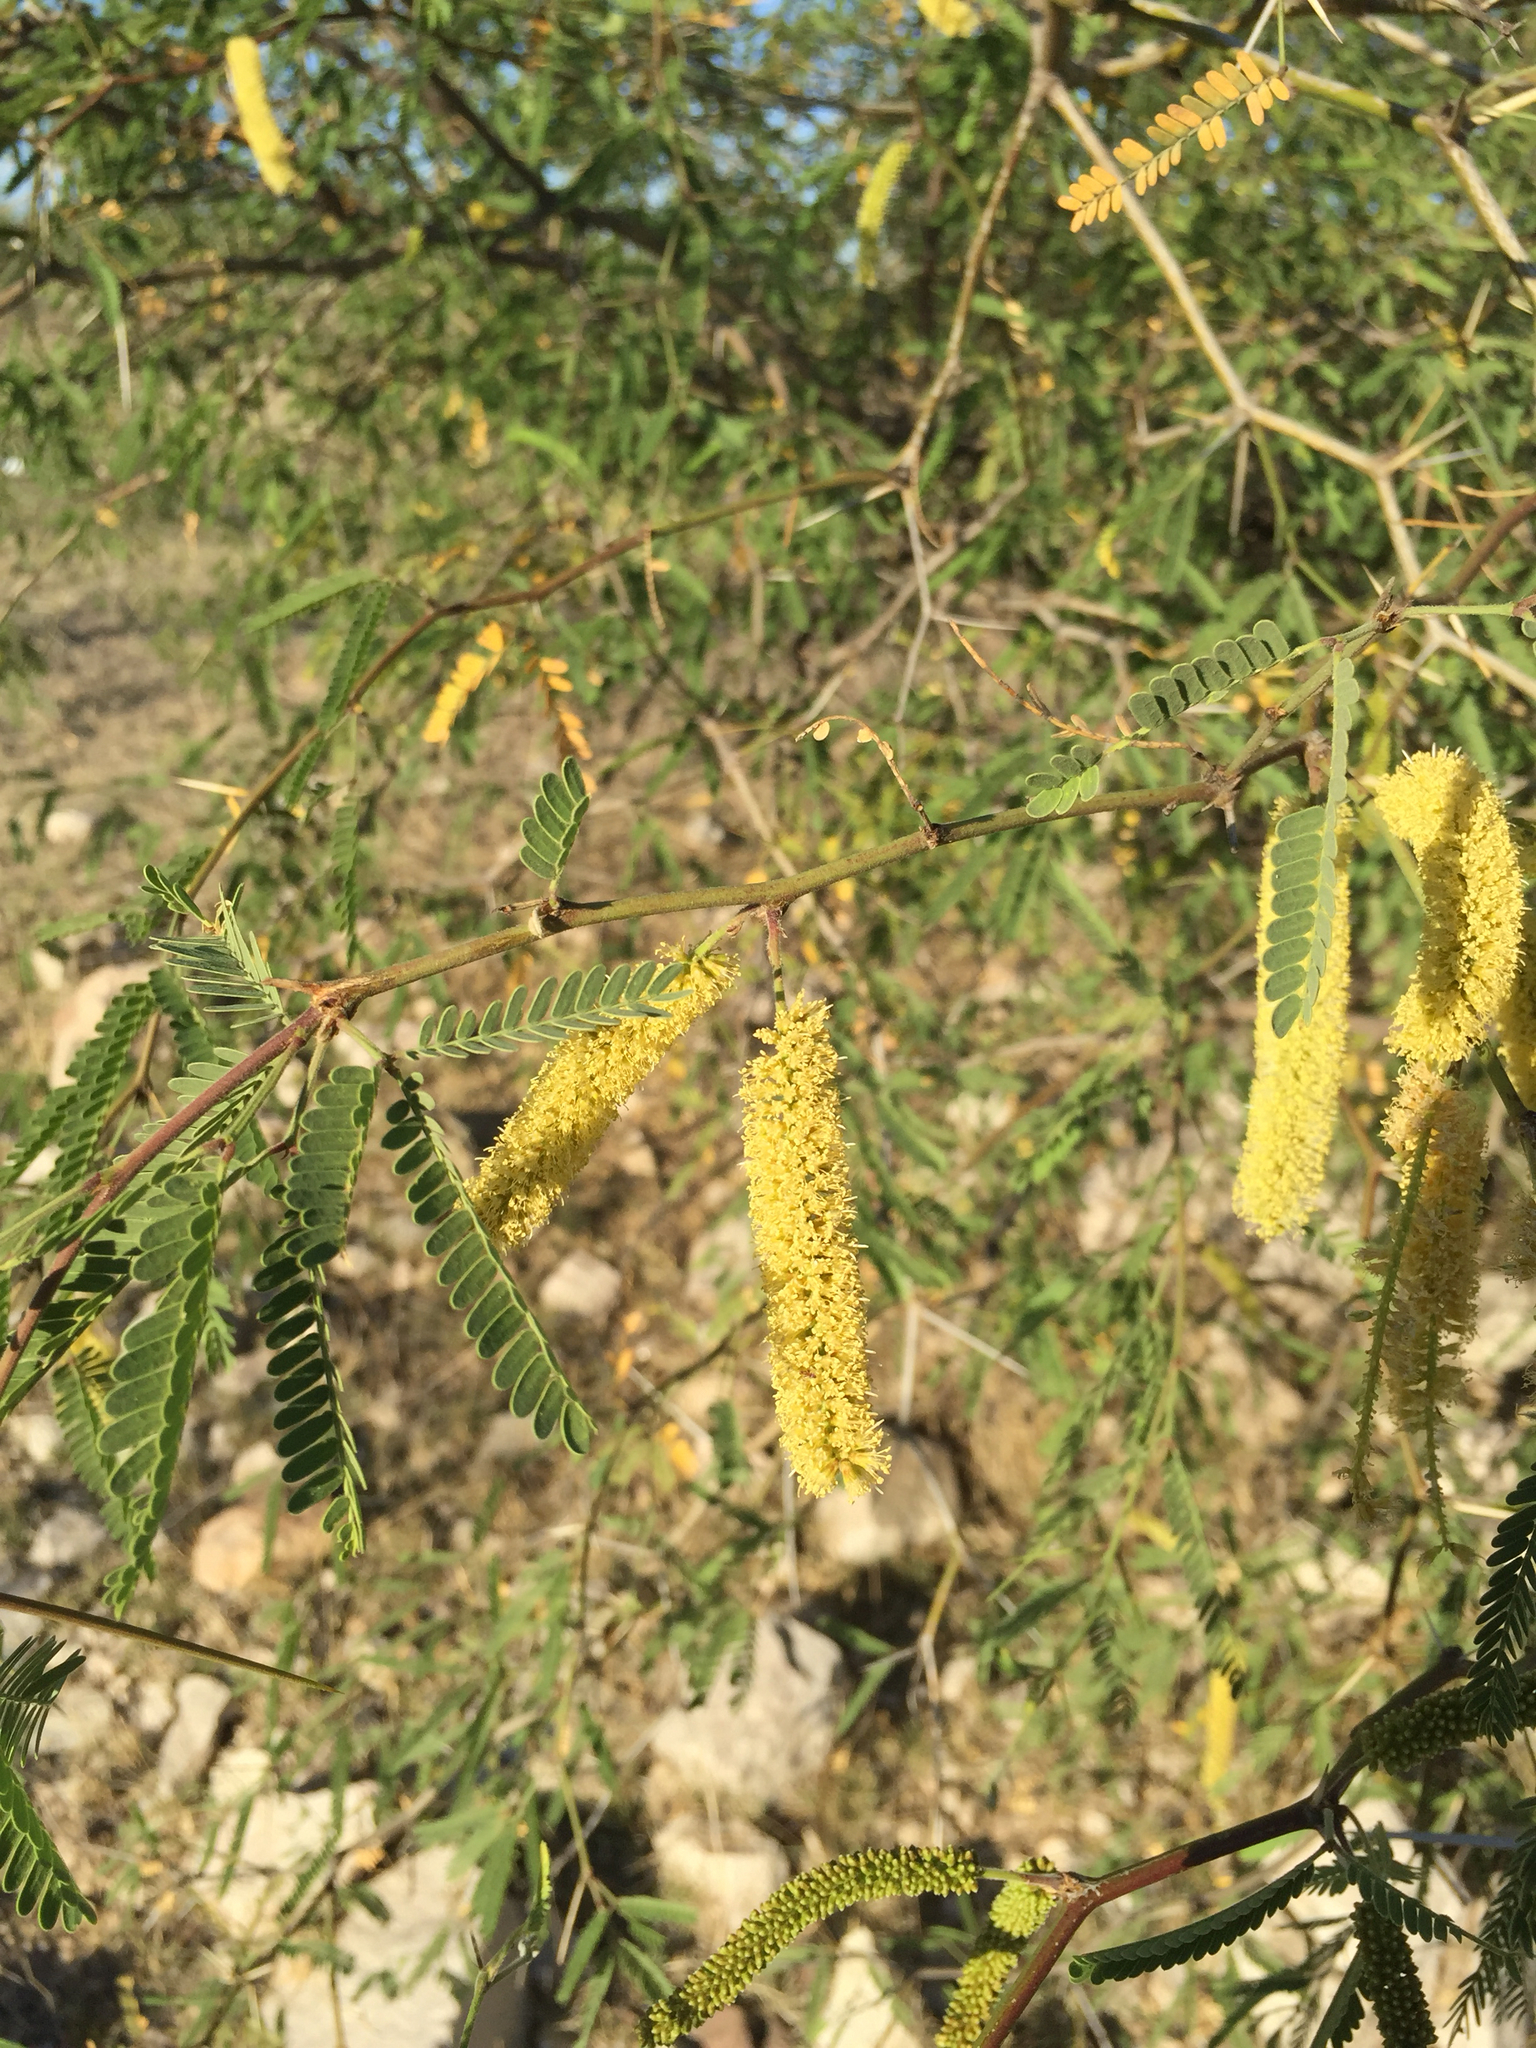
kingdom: Plantae
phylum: Tracheophyta
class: Magnoliopsida
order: Fabales
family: Fabaceae
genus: Prosopis
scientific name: Prosopis velutina
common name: Velvet mesquite
